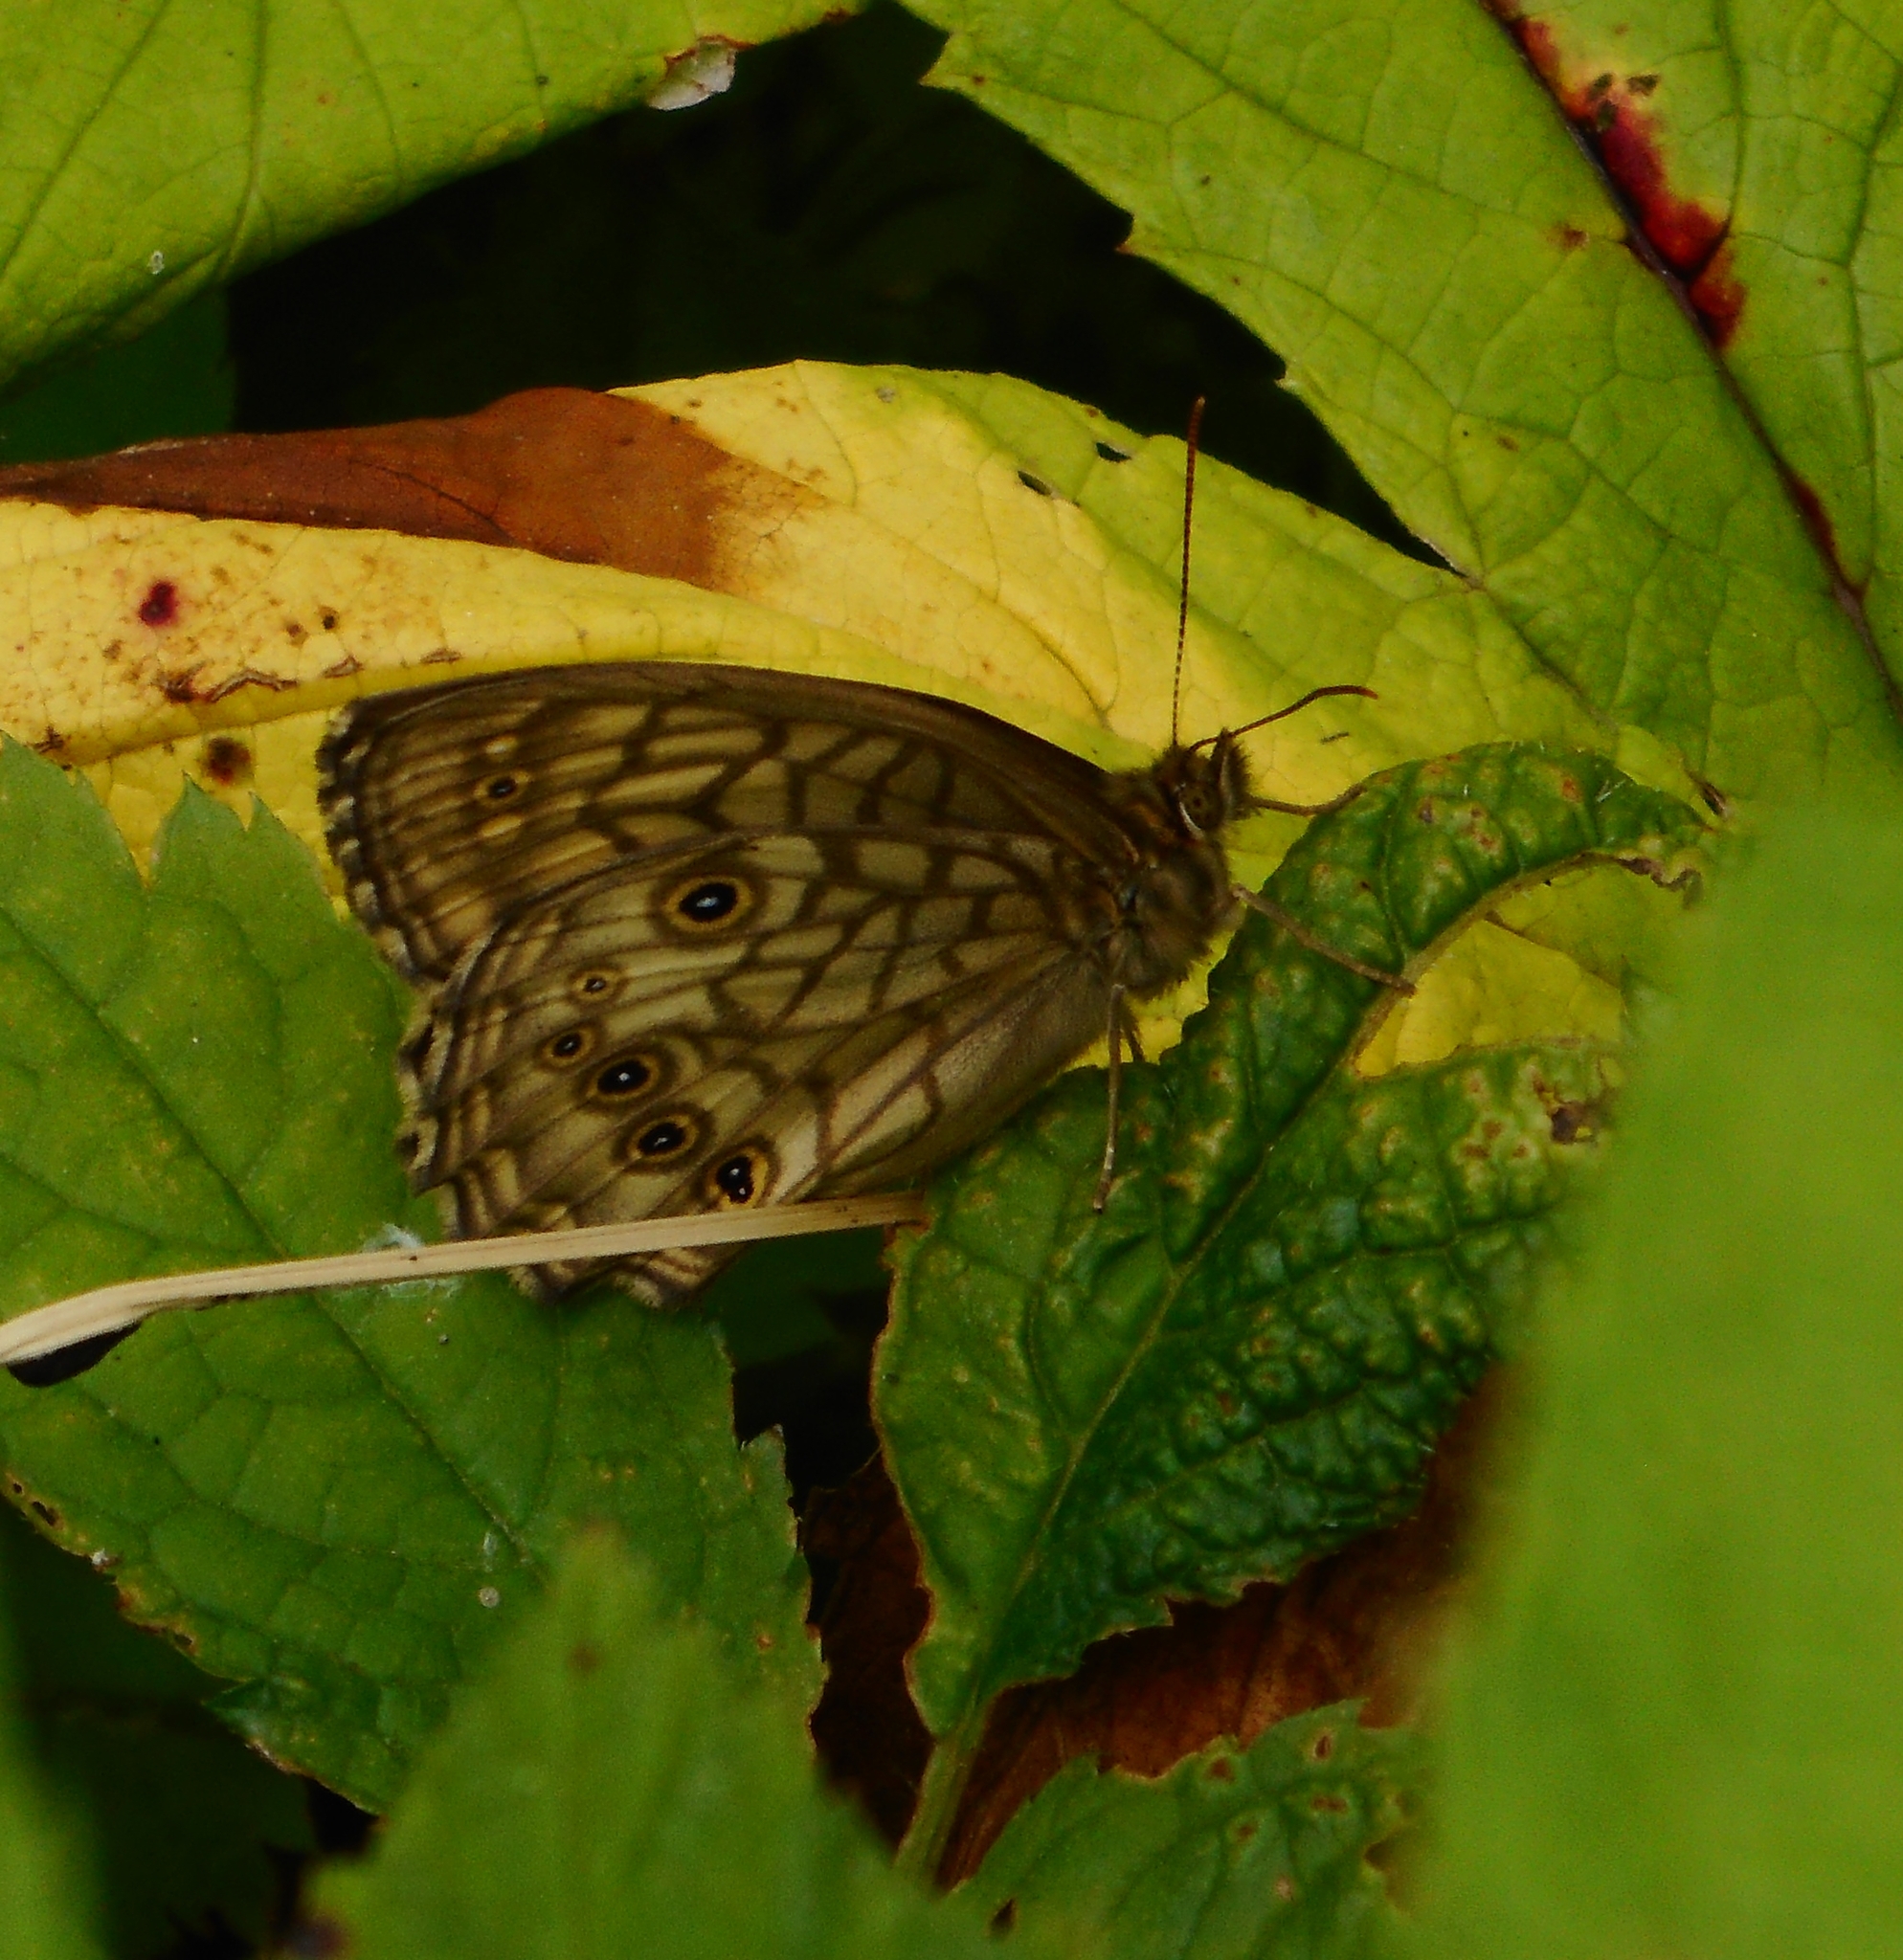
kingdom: Animalia
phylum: Arthropoda
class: Insecta
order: Lepidoptera
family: Nymphalidae
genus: Kirinia
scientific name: Kirinia epimenides
